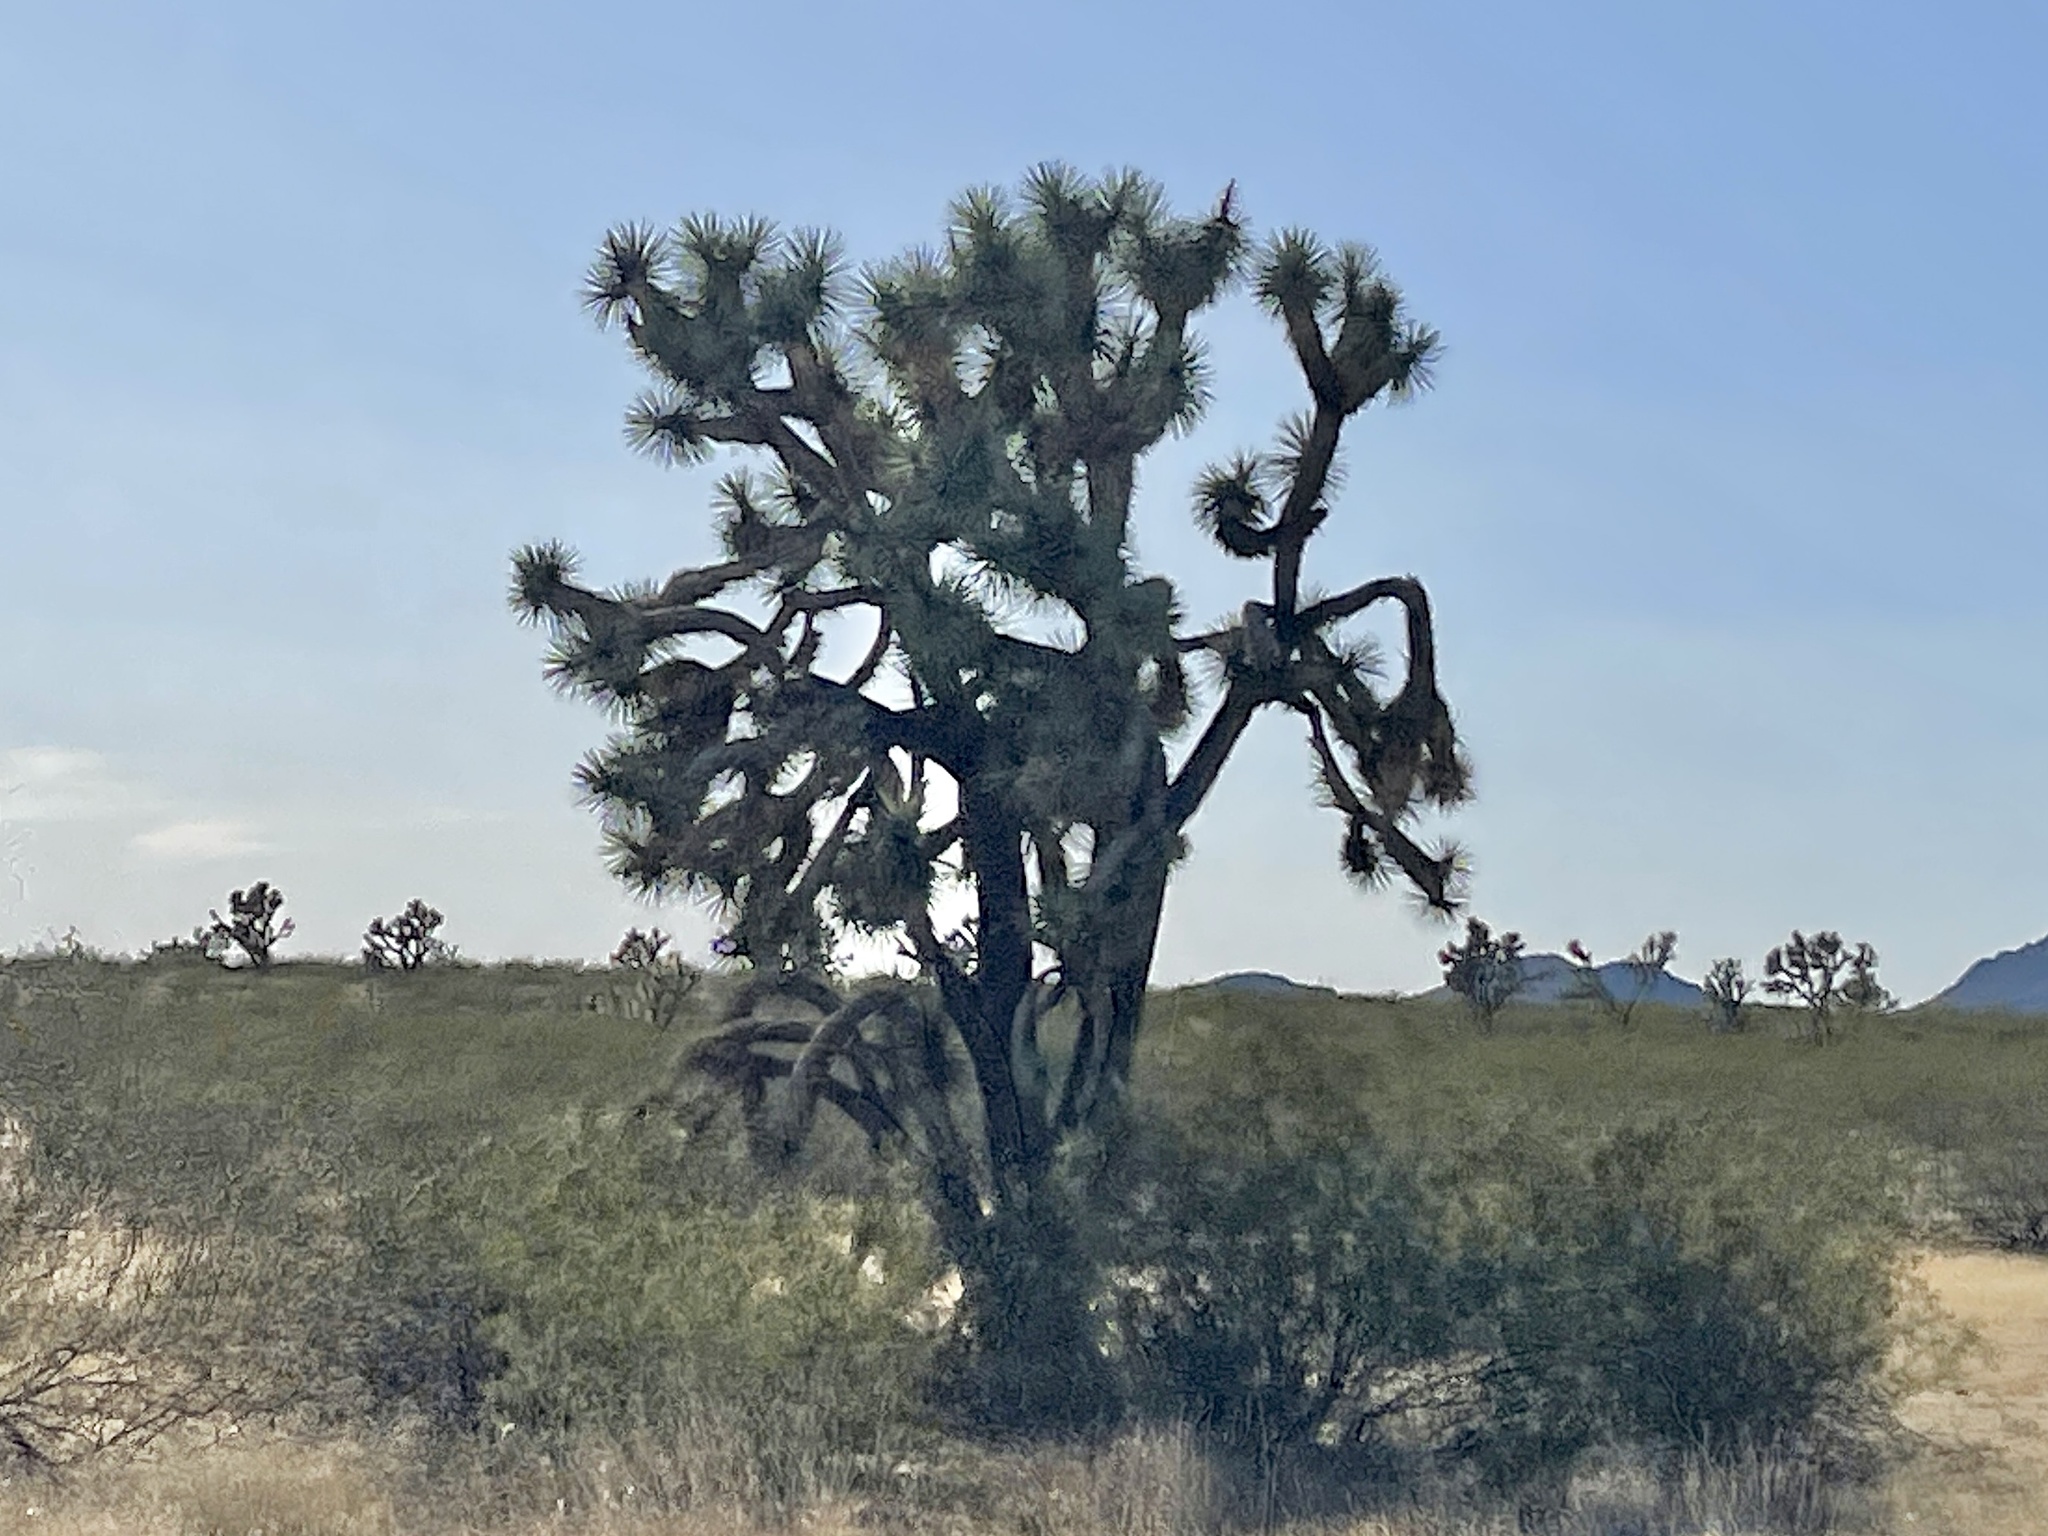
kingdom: Plantae
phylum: Tracheophyta
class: Liliopsida
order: Asparagales
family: Asparagaceae
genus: Yucca
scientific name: Yucca brevifolia
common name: Joshua tree
